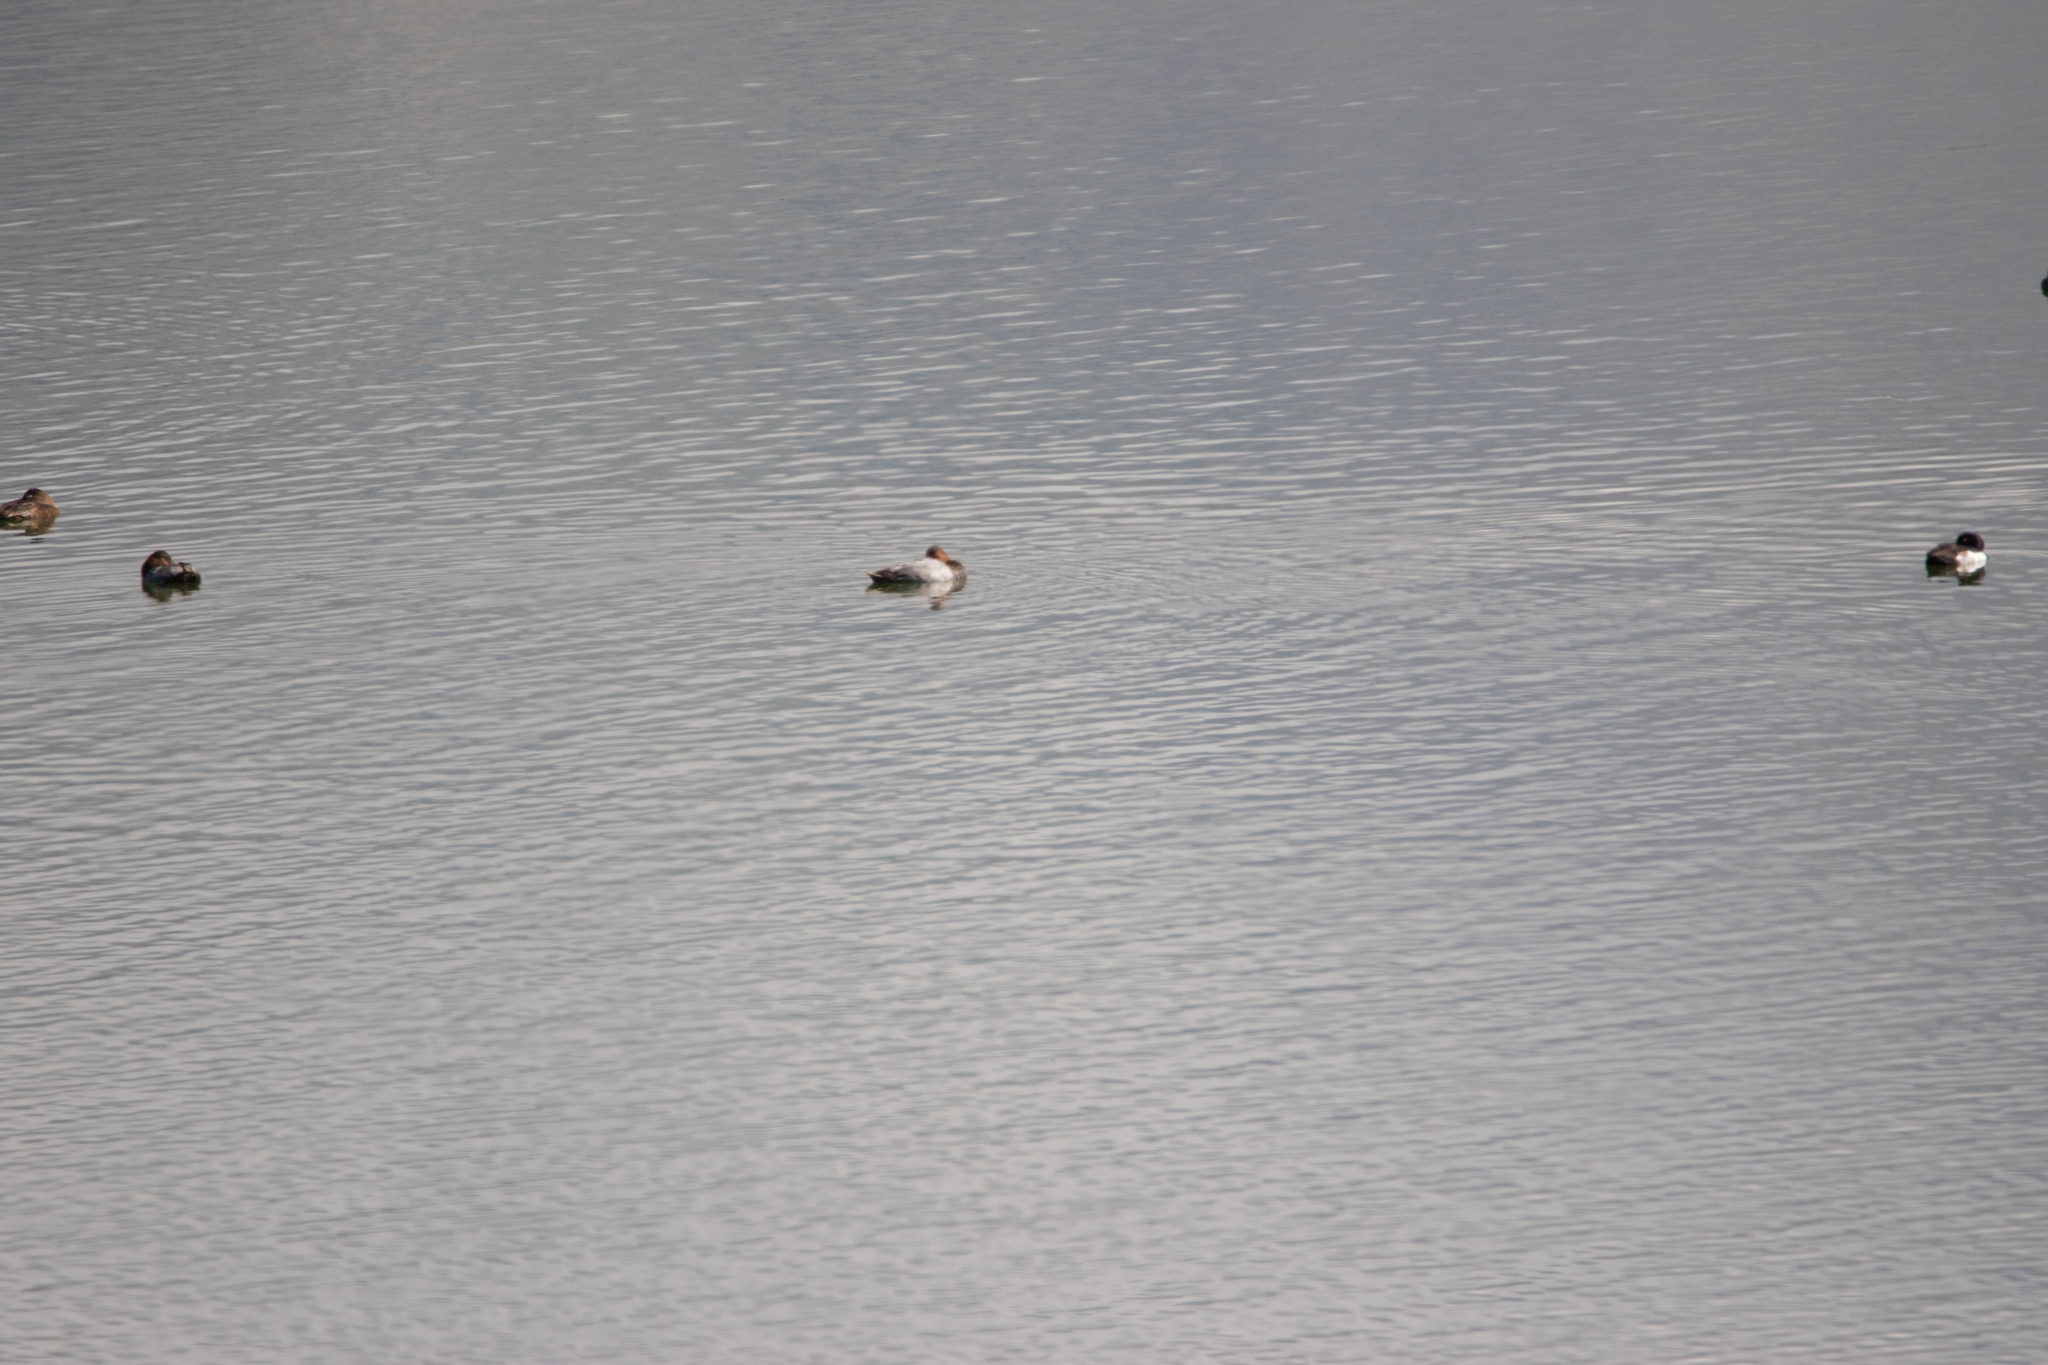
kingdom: Animalia
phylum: Chordata
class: Aves
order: Anseriformes
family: Anatidae
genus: Aythya
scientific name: Aythya ferina
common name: Common pochard
